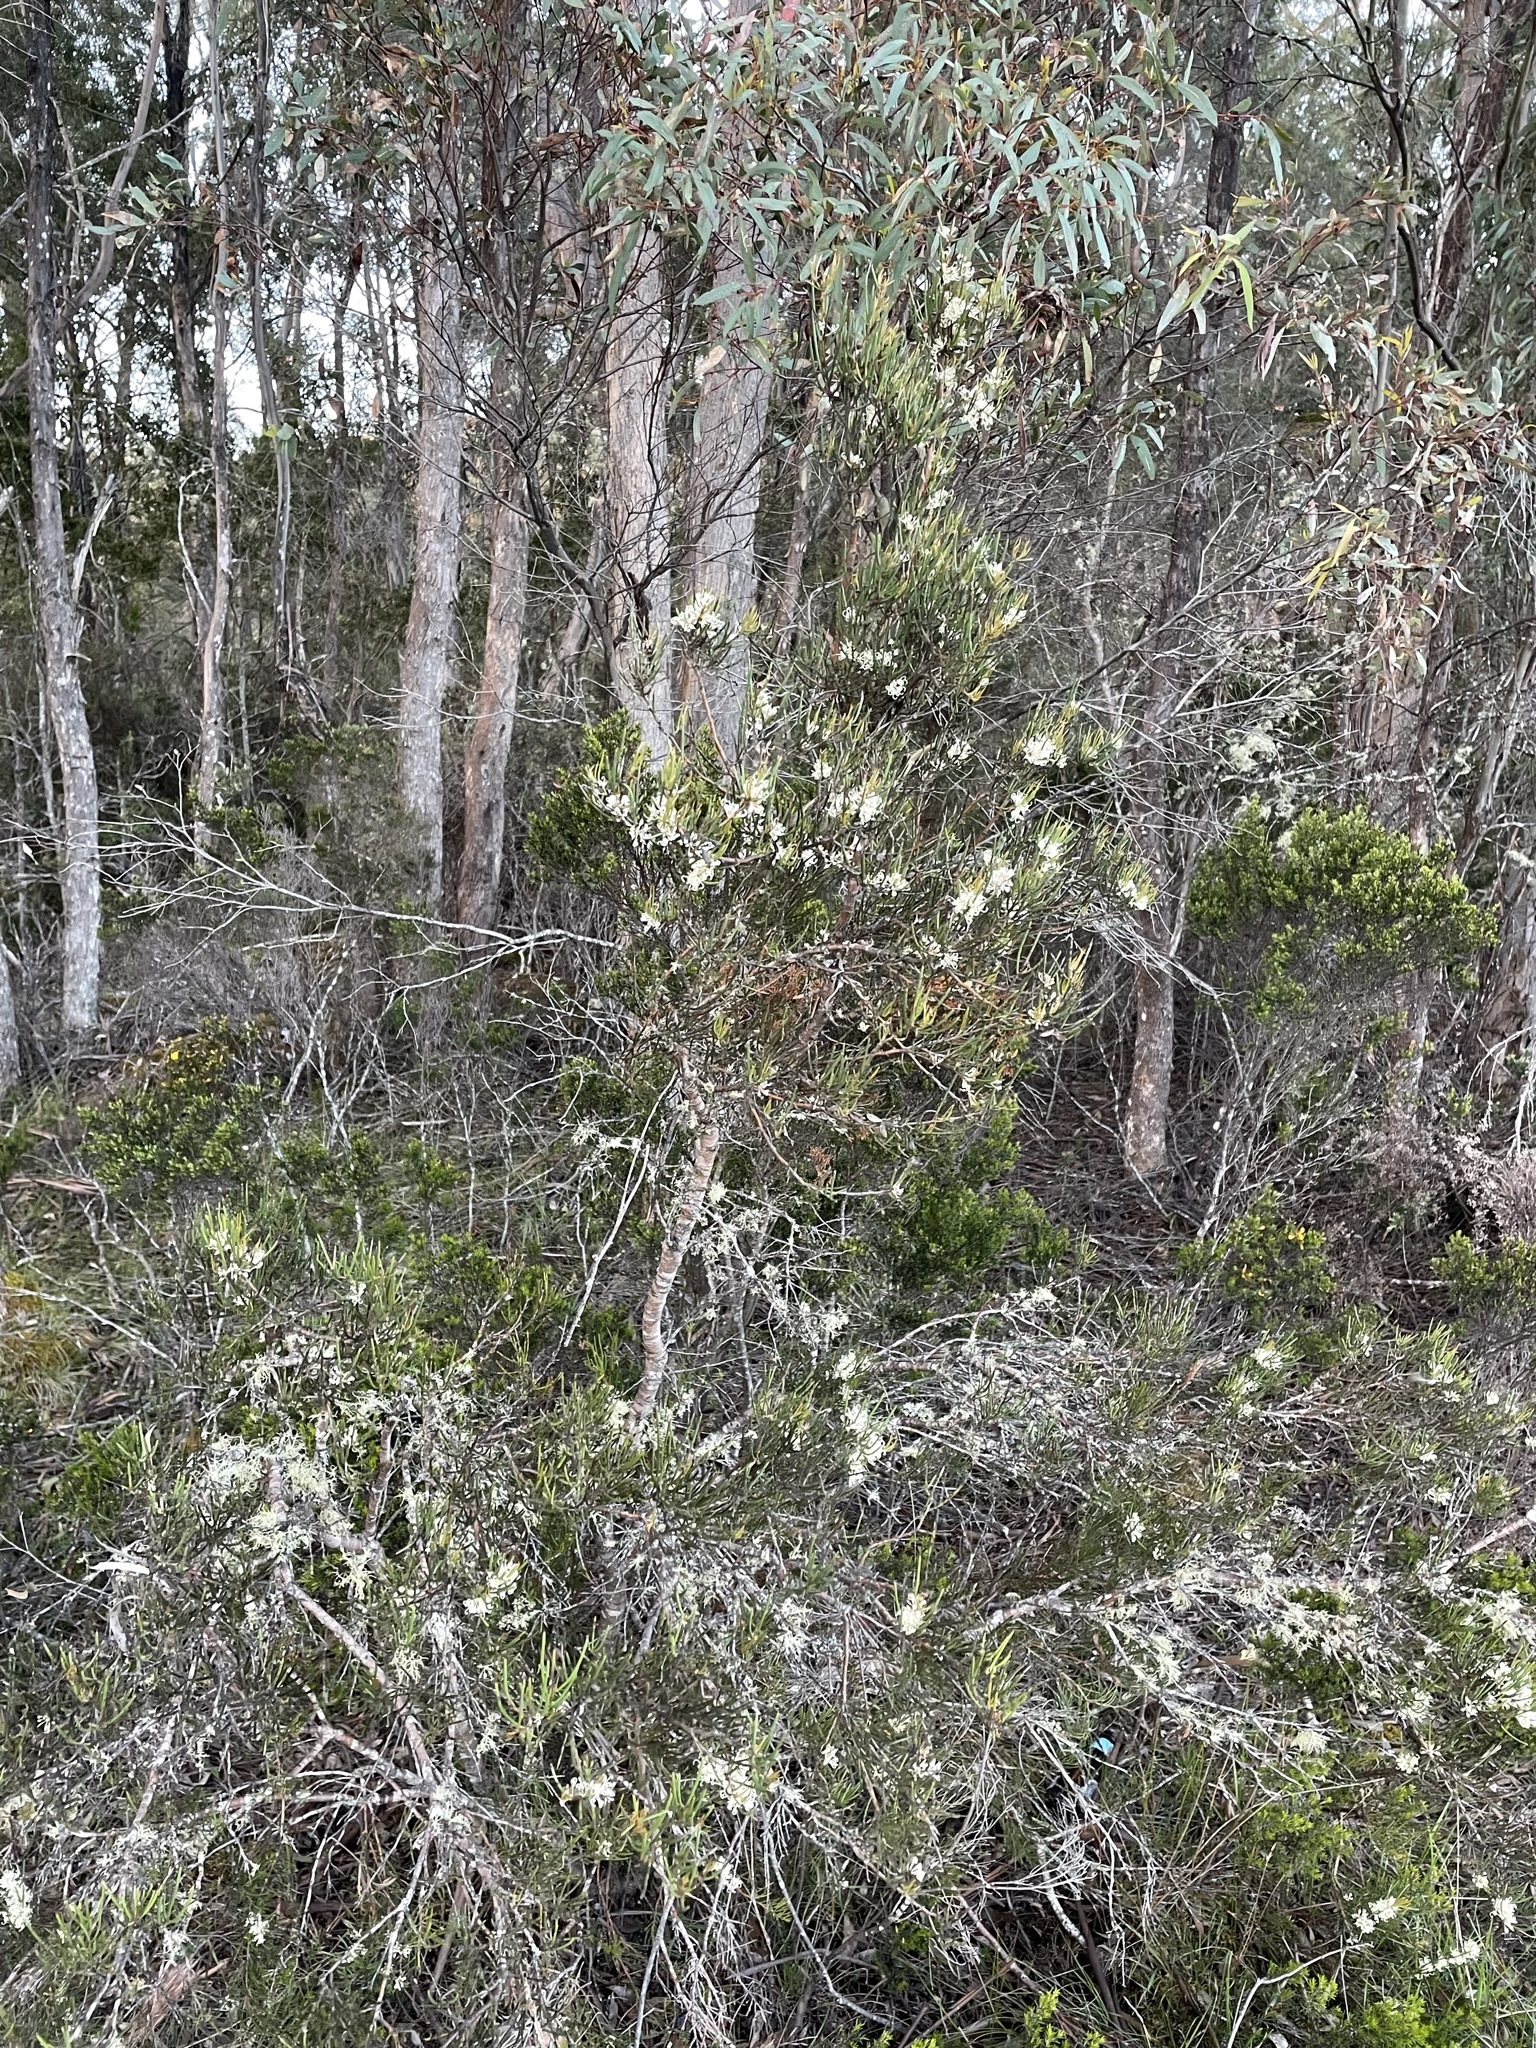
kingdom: Plantae
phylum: Tracheophyta
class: Magnoliopsida
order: Proteales
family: Proteaceae
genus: Hakea
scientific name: Hakea microcarpa
